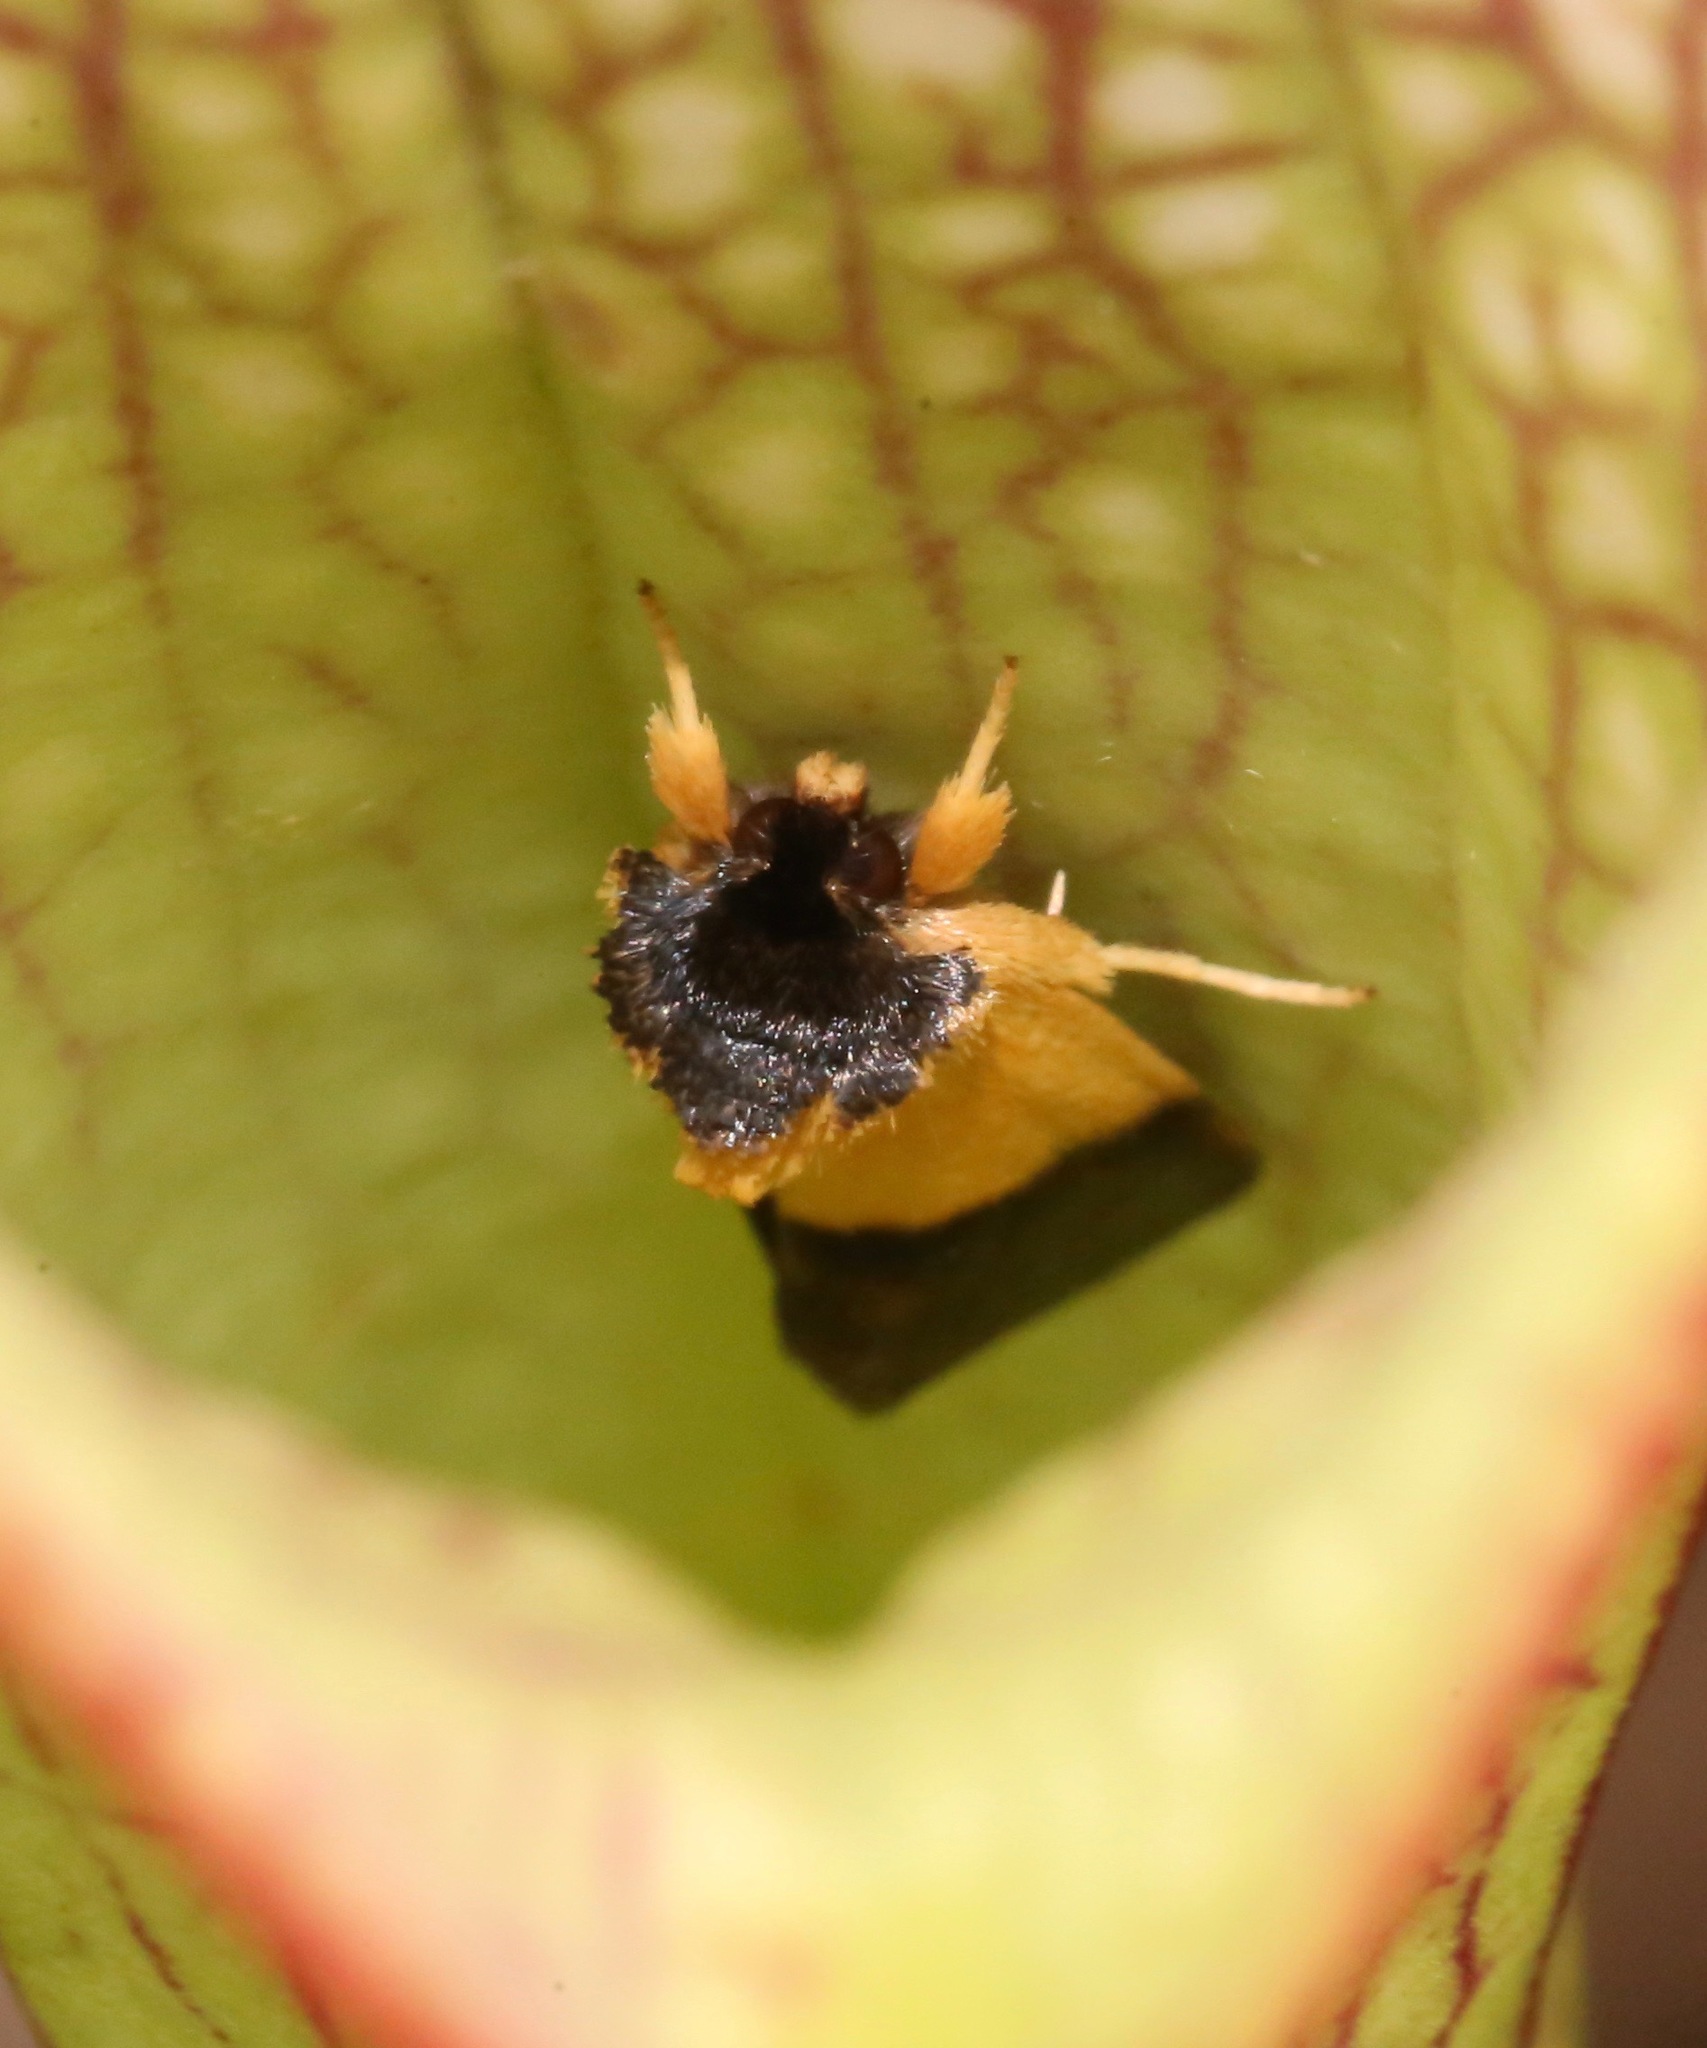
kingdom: Animalia
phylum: Arthropoda
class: Insecta
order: Lepidoptera
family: Noctuidae
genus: Exyra
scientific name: Exyra semicrocea
